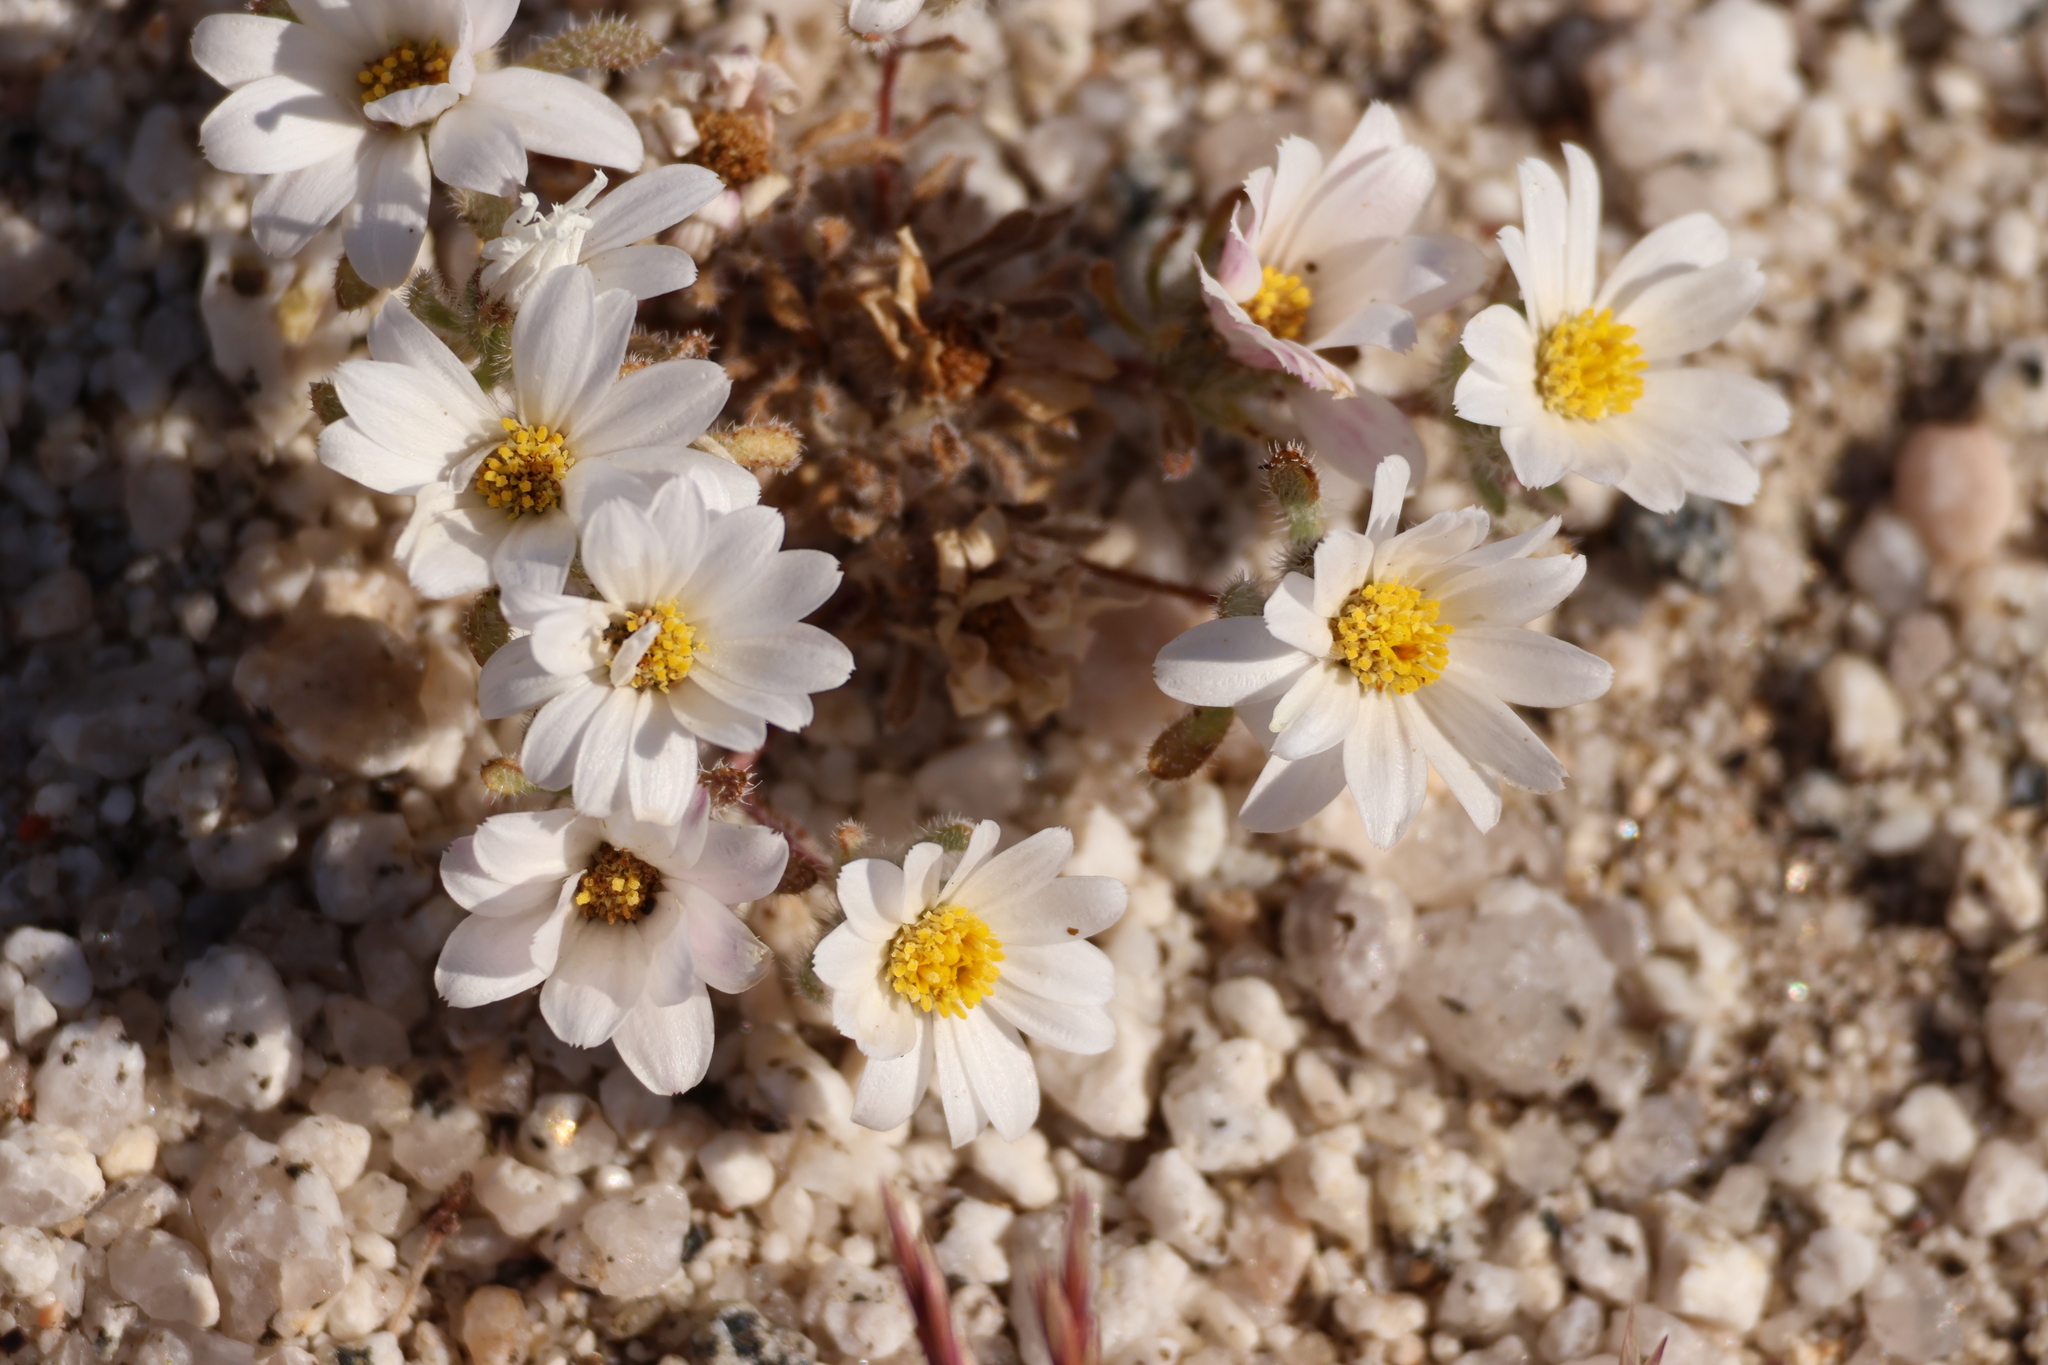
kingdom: Plantae
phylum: Tracheophyta
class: Magnoliopsida
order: Asterales
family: Asteraceae
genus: Monoptilon
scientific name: Monoptilon bellioides
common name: Bristly desertstar
